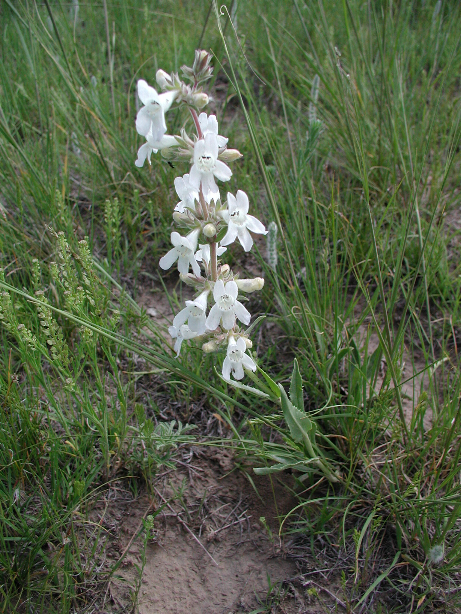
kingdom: Plantae
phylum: Tracheophyta
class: Magnoliopsida
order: Lamiales
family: Plantaginaceae
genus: Penstemon
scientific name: Penstemon albidus
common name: White beardtongue
